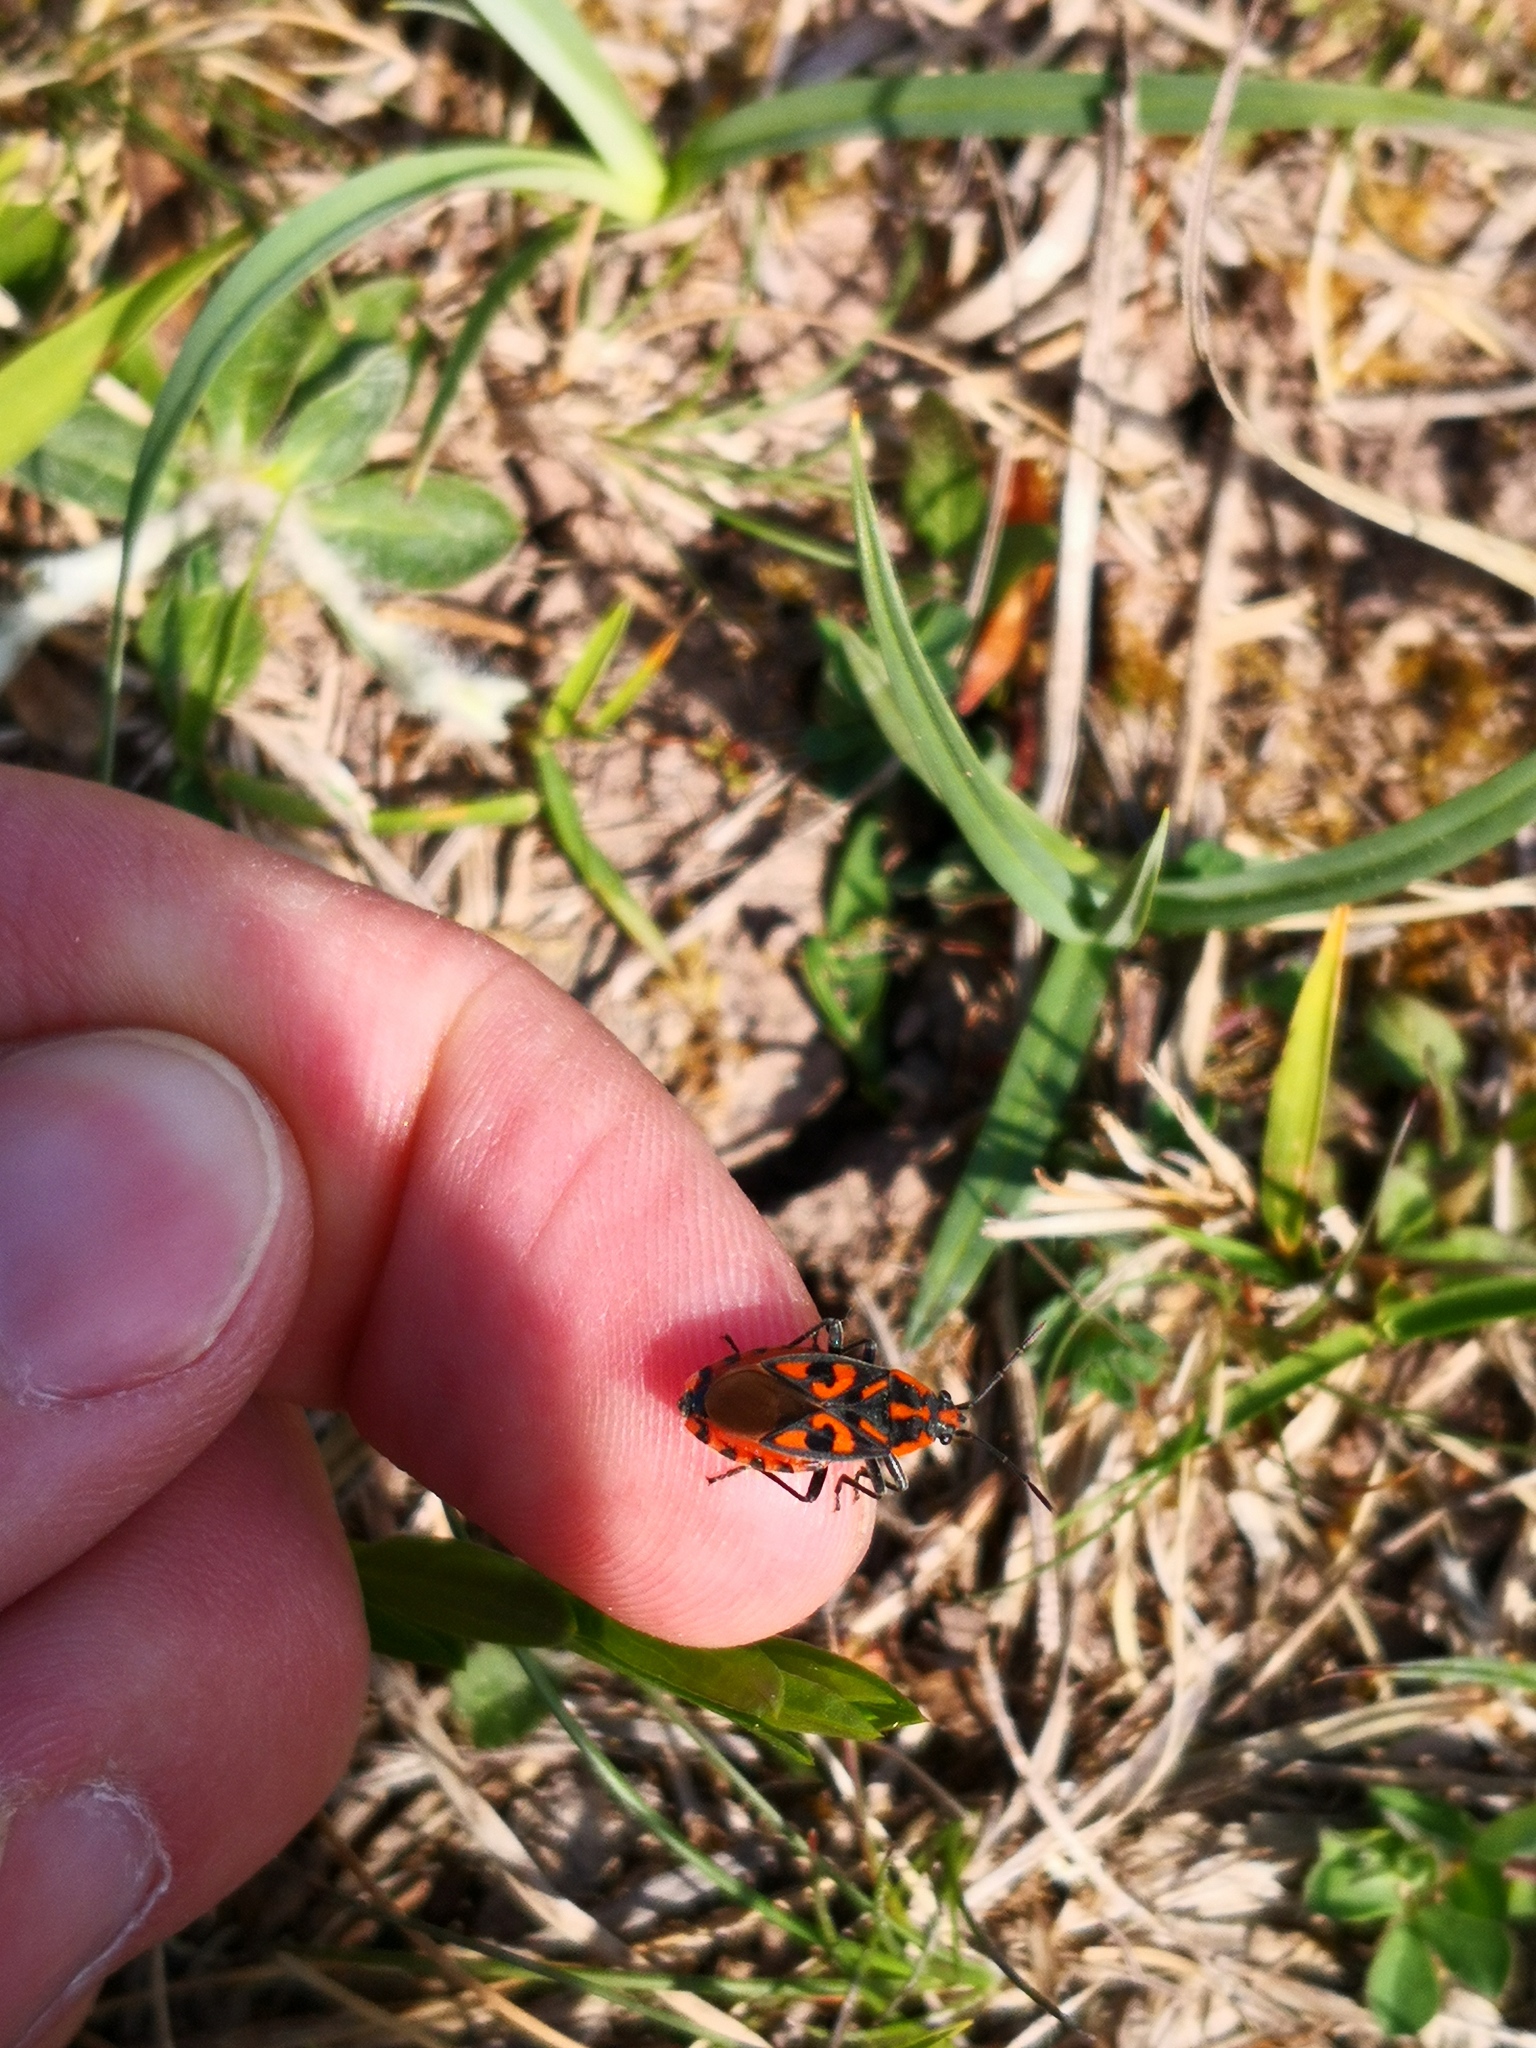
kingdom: Animalia
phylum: Arthropoda
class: Insecta
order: Hemiptera
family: Lygaeidae
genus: Spilostethus
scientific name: Spilostethus saxatilis
